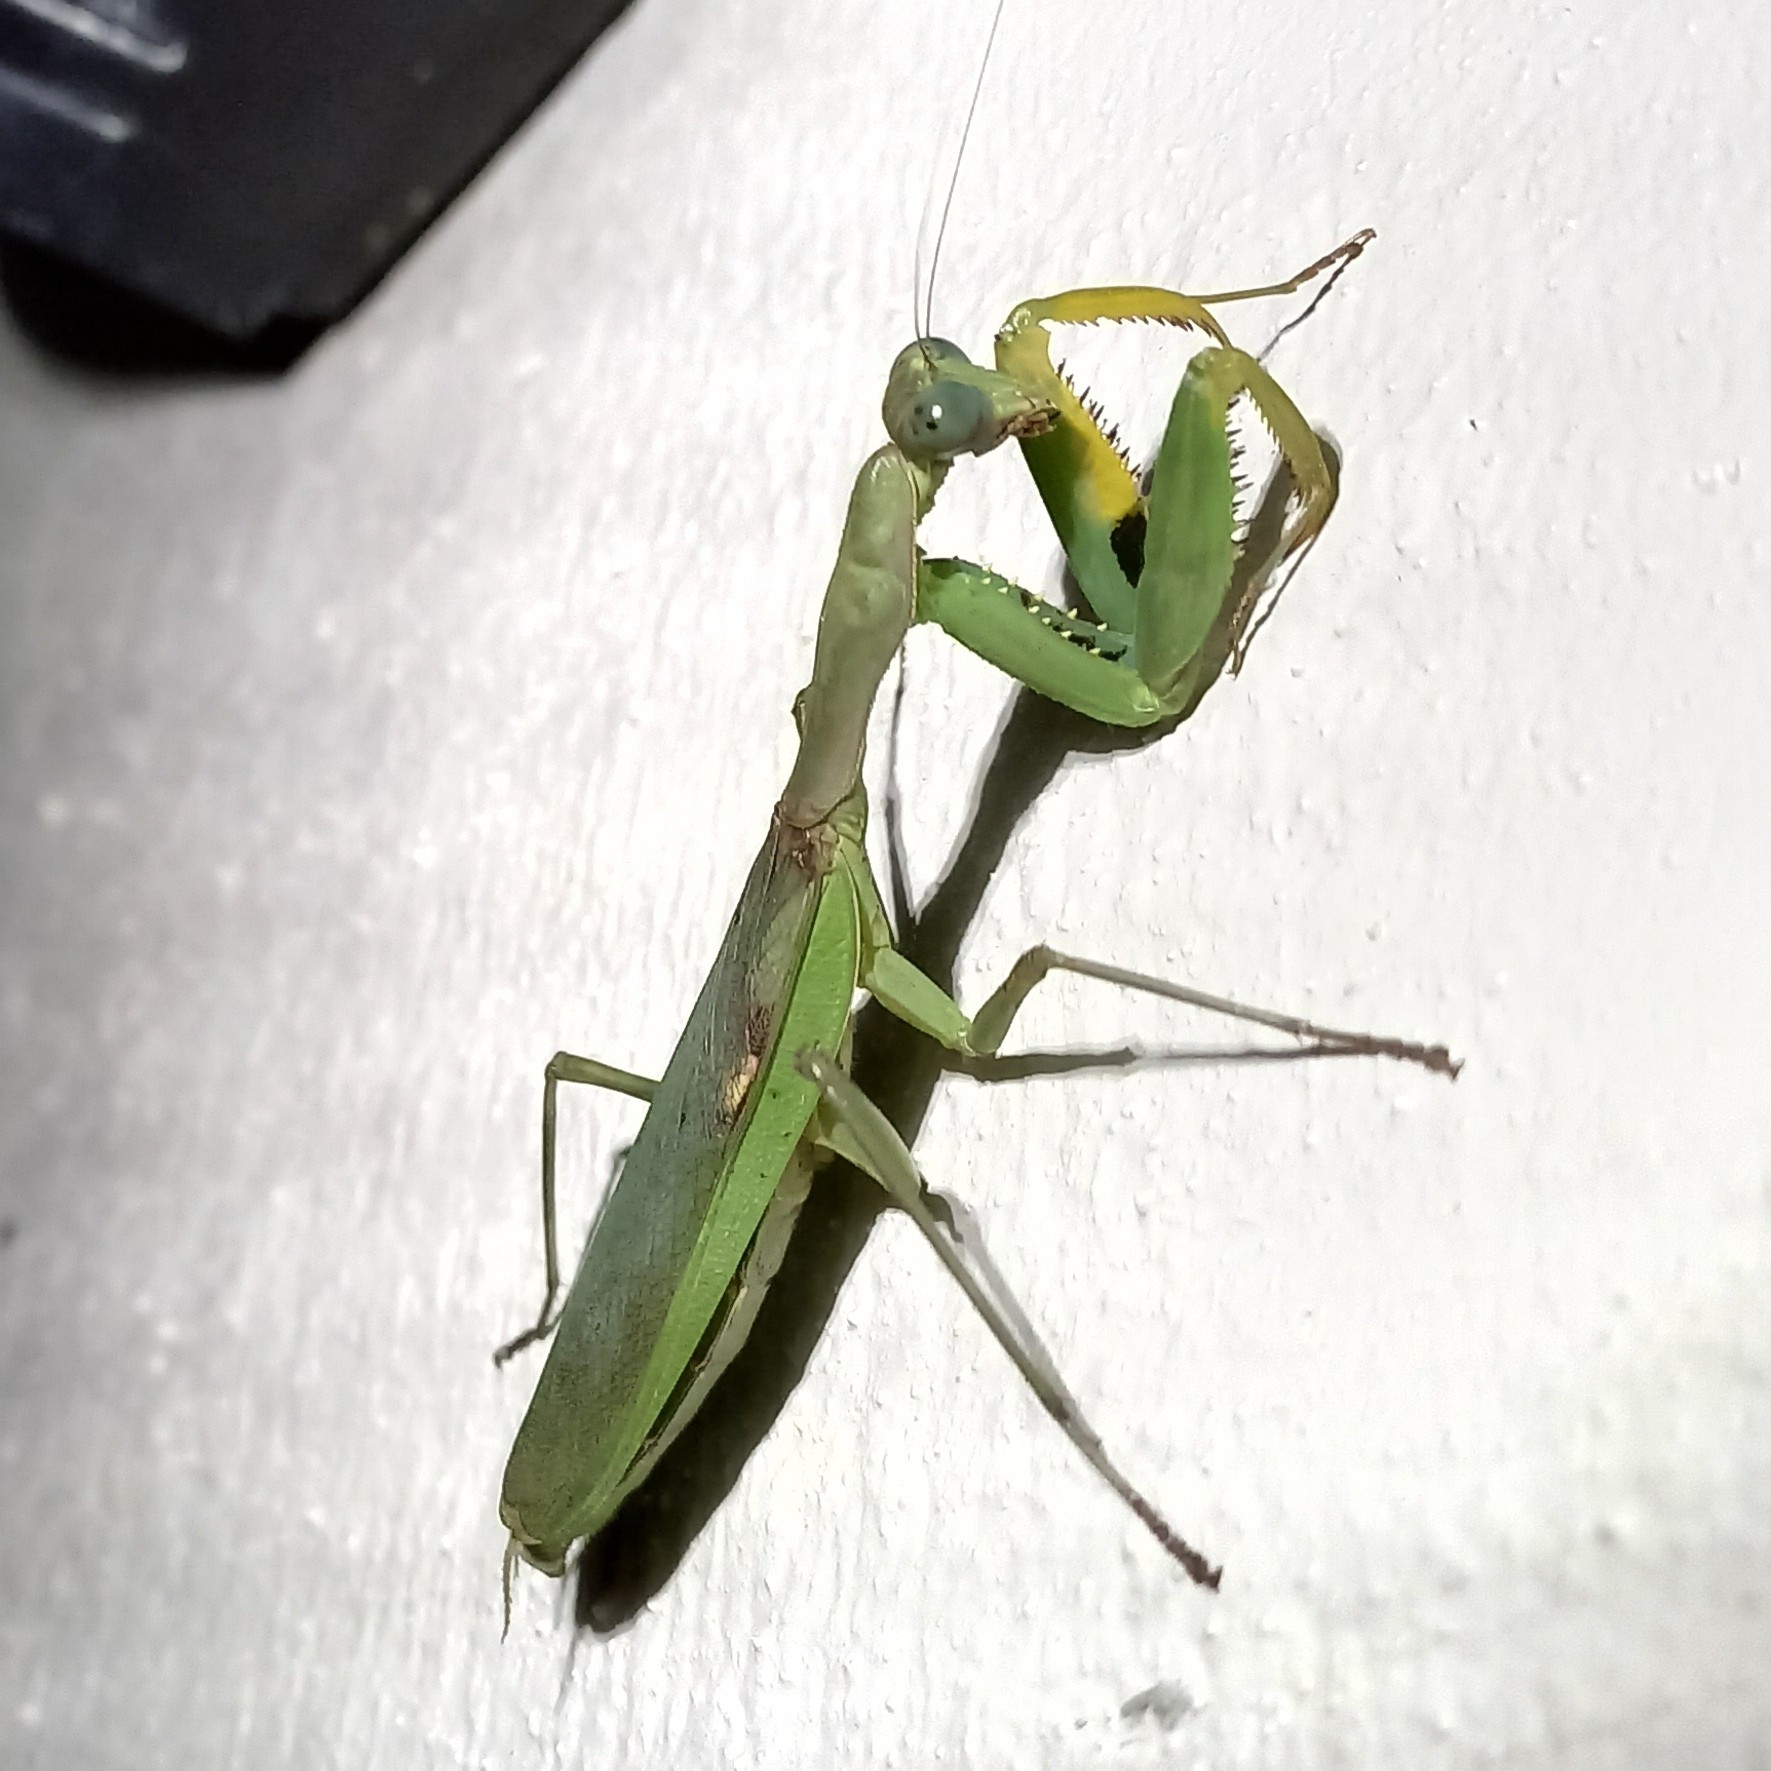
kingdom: Animalia
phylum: Arthropoda
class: Insecta
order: Mantodea
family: Mantidae
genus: Polyspilota
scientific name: Polyspilota aeruginosa
